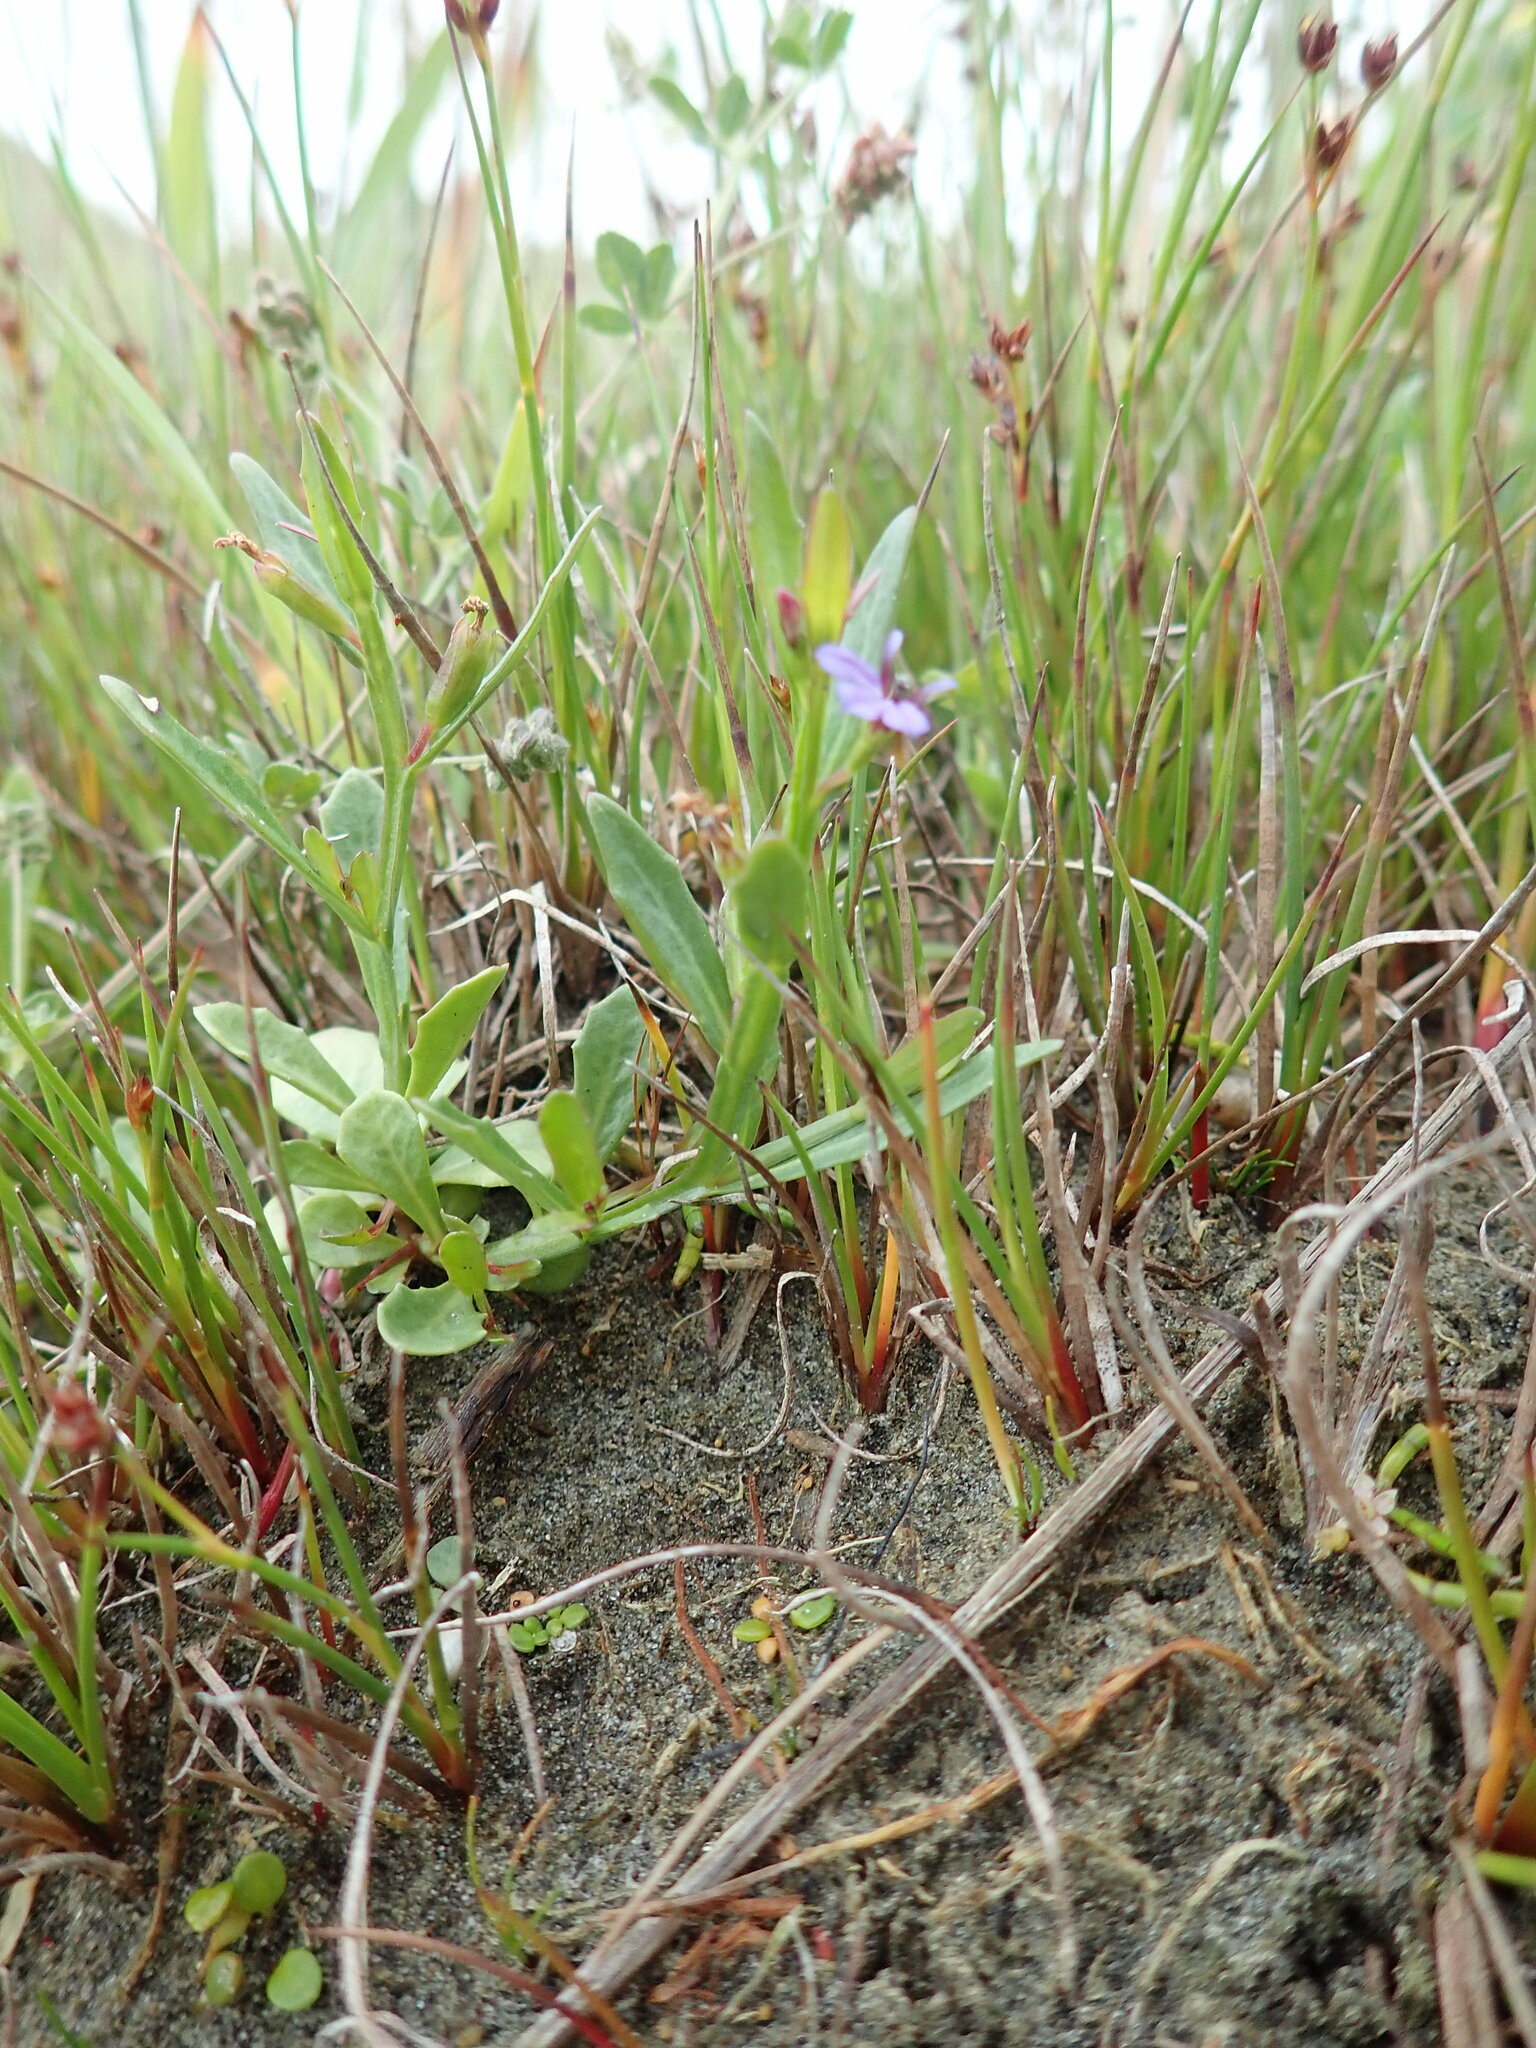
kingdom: Plantae
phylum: Tracheophyta
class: Magnoliopsida
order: Asterales
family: Campanulaceae
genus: Lobelia
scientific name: Lobelia anceps
